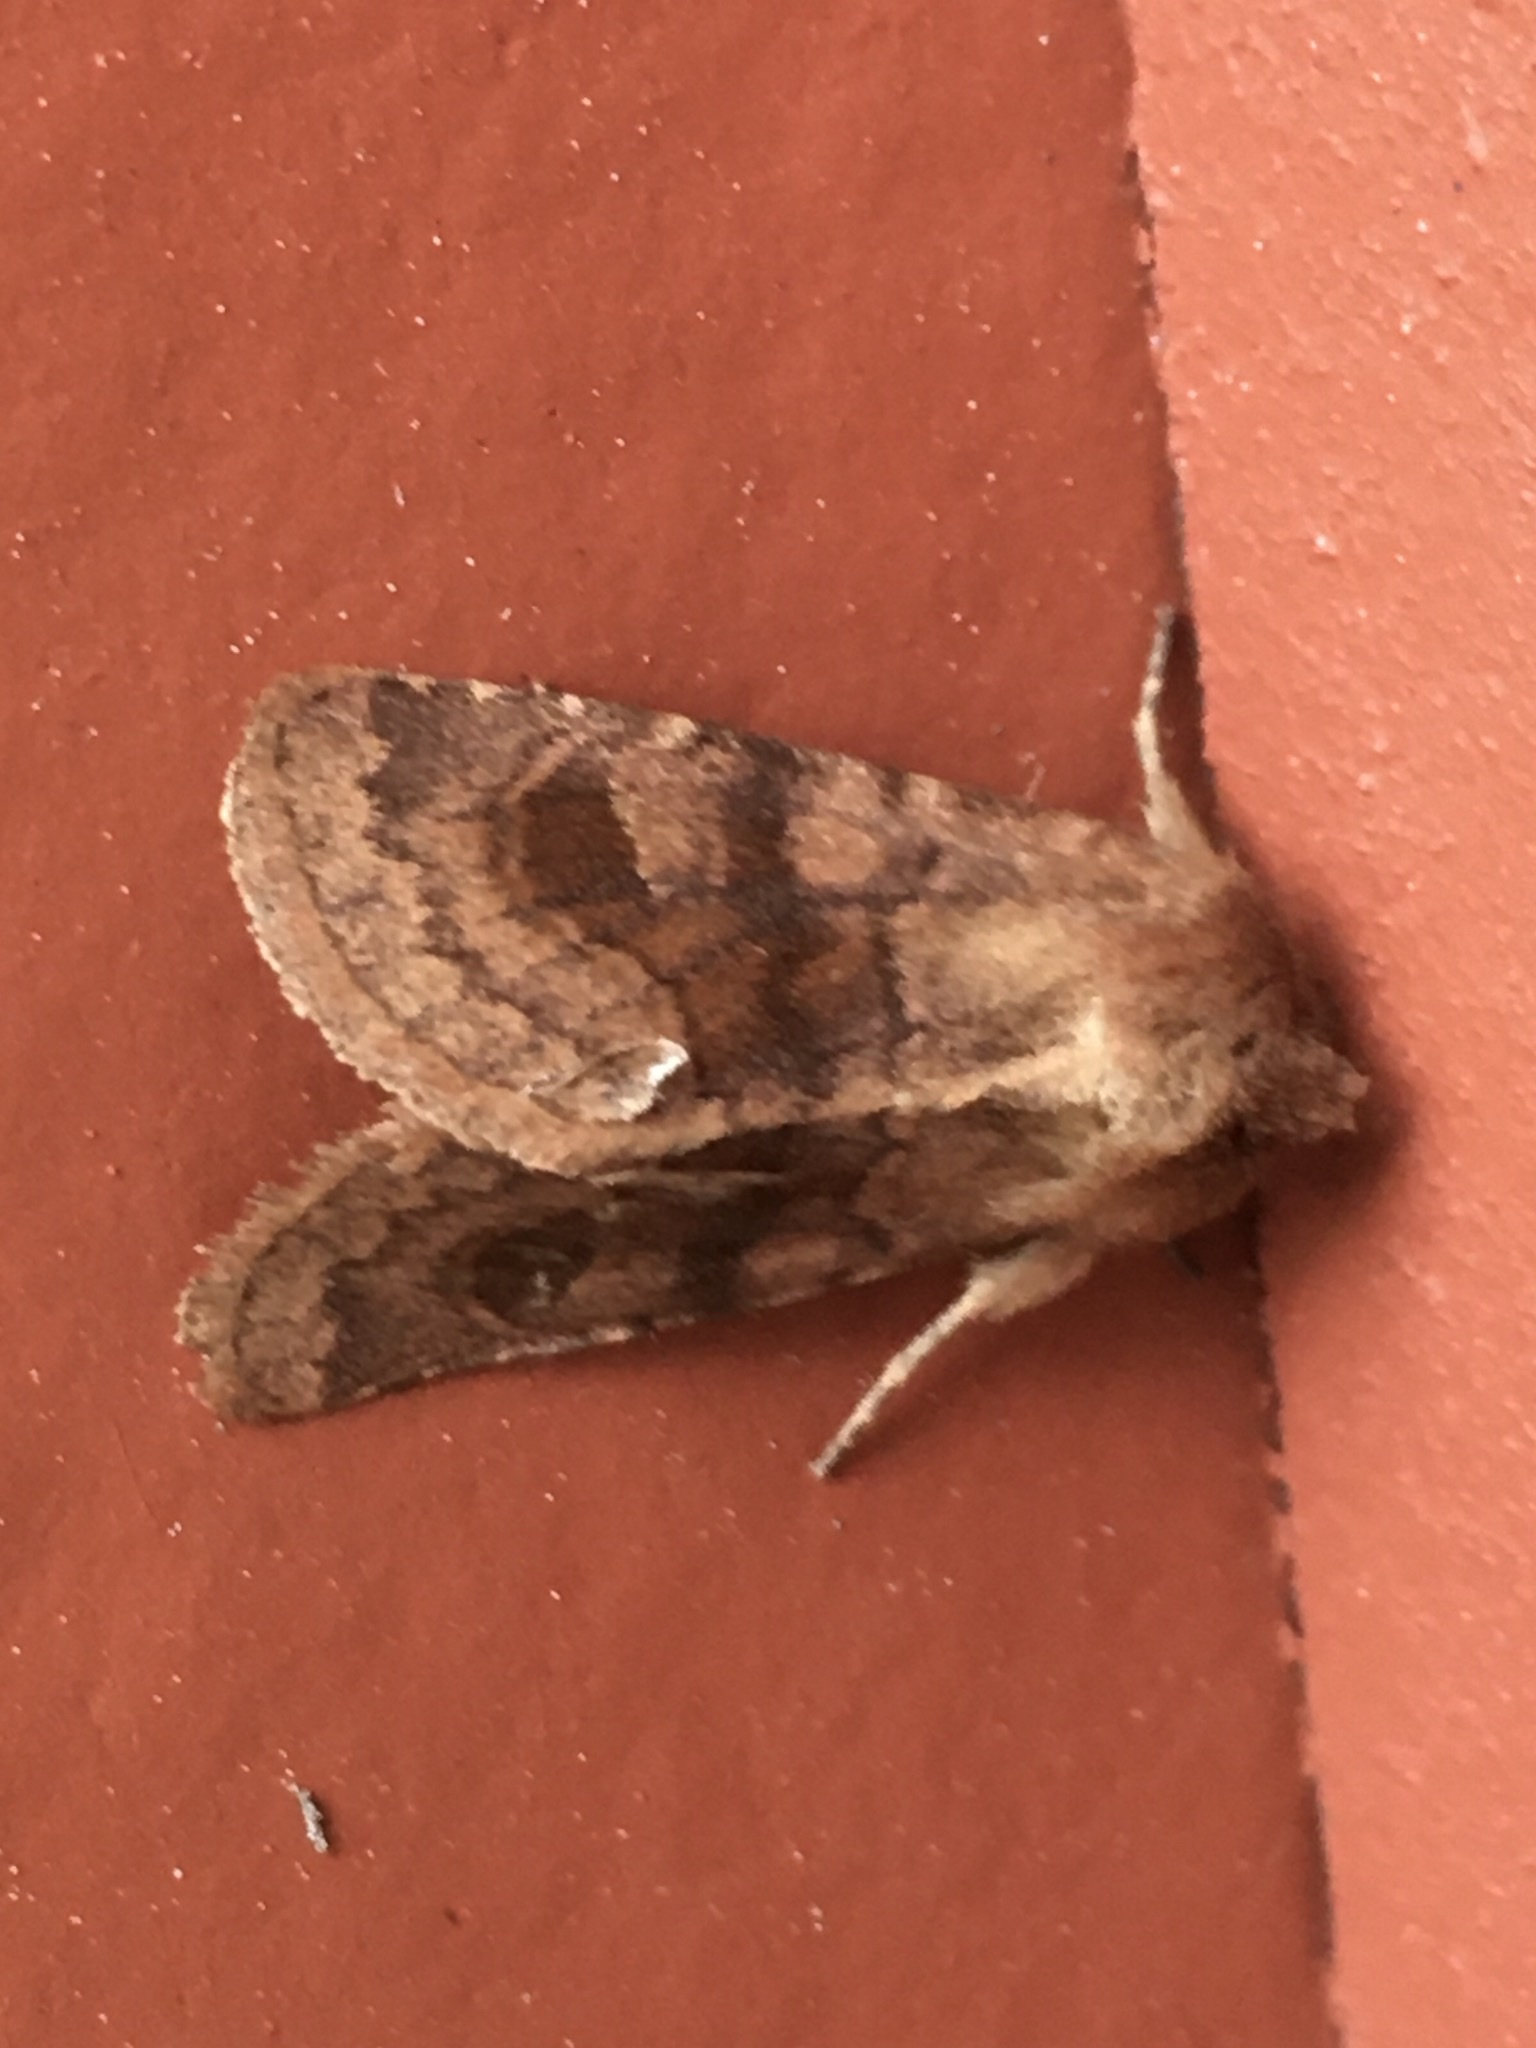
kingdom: Animalia
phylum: Arthropoda
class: Insecta
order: Lepidoptera
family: Noctuidae
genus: Nephelodes
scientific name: Nephelodes minians
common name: Bronzed cutworm
